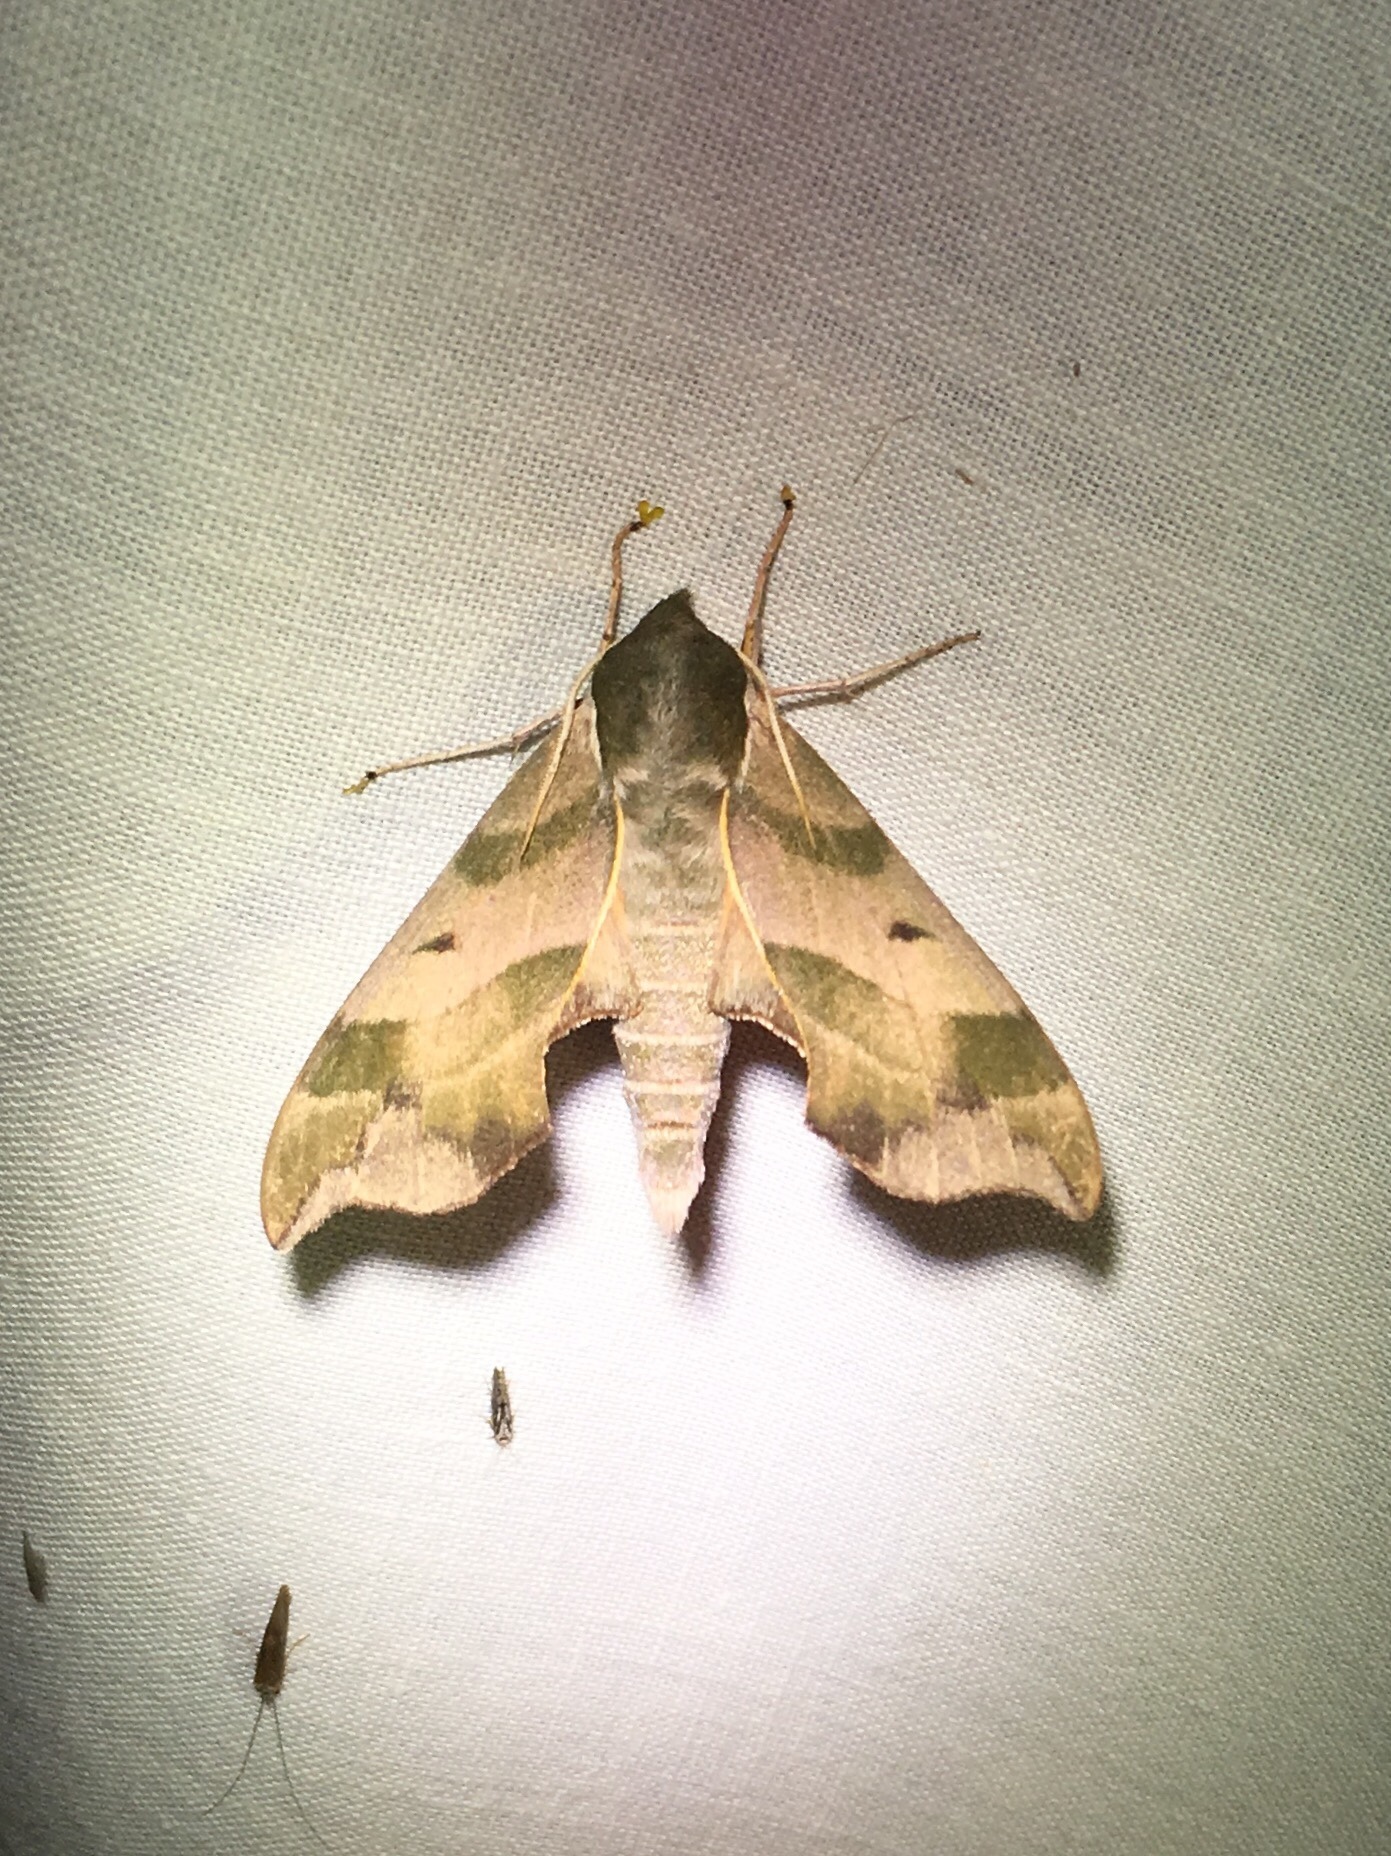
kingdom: Animalia
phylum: Arthropoda
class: Insecta
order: Lepidoptera
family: Sphingidae
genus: Darapsa
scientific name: Darapsa myron
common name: Hog sphinx
